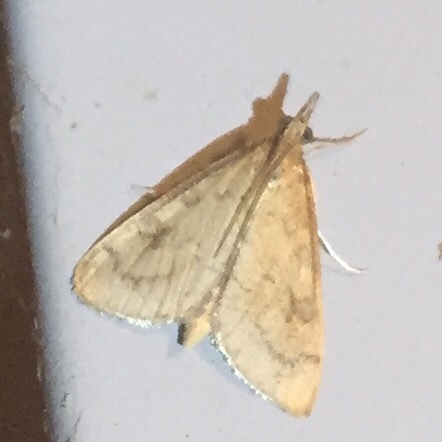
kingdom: Animalia
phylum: Arthropoda
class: Insecta
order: Lepidoptera
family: Crambidae
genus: Udea
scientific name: Udea rubigalis
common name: Celery leaftier moth
